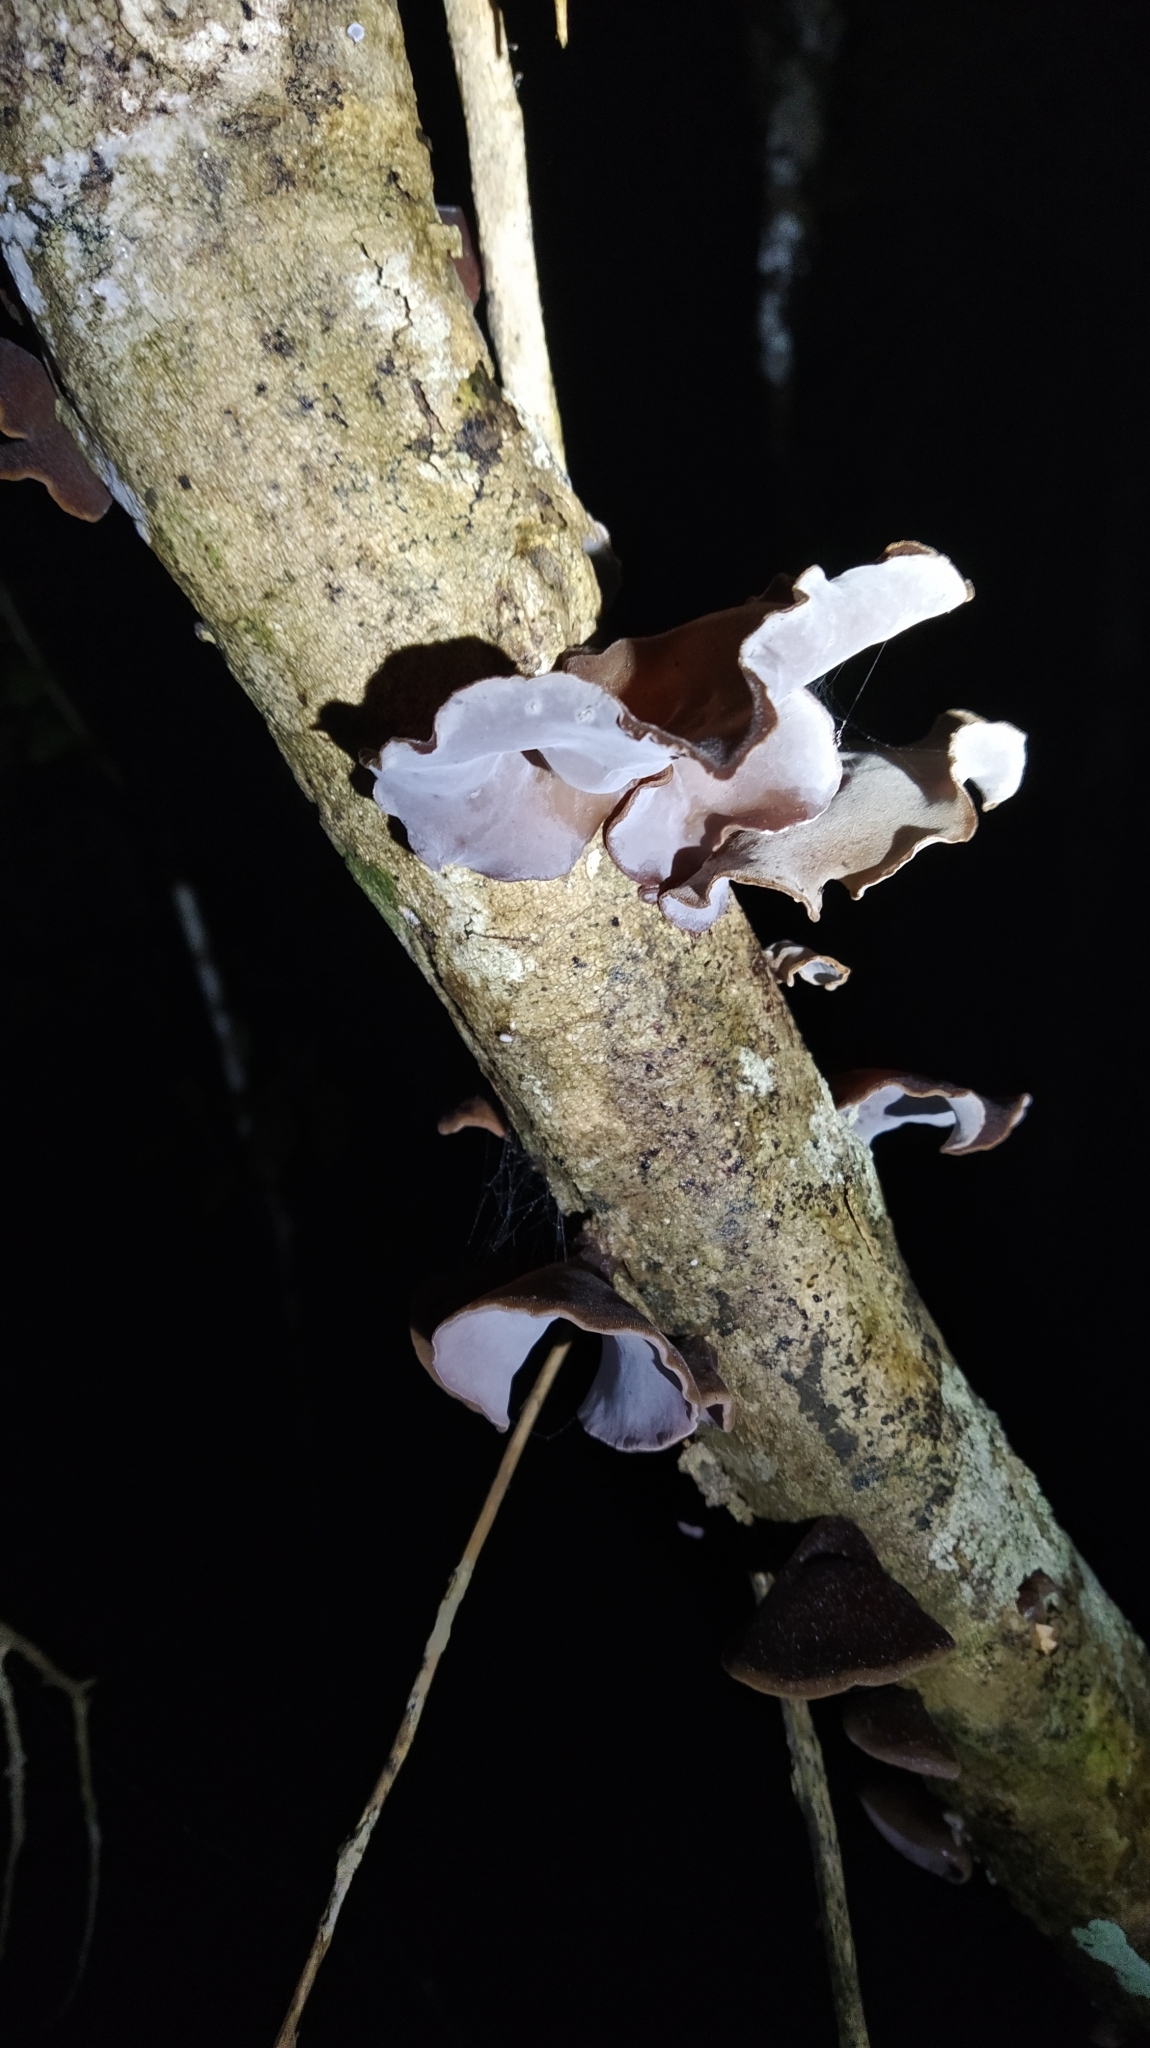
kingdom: Fungi
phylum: Basidiomycota
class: Agaricomycetes
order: Auriculariales
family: Auriculariaceae
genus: Auricularia
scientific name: Auricularia cornea
